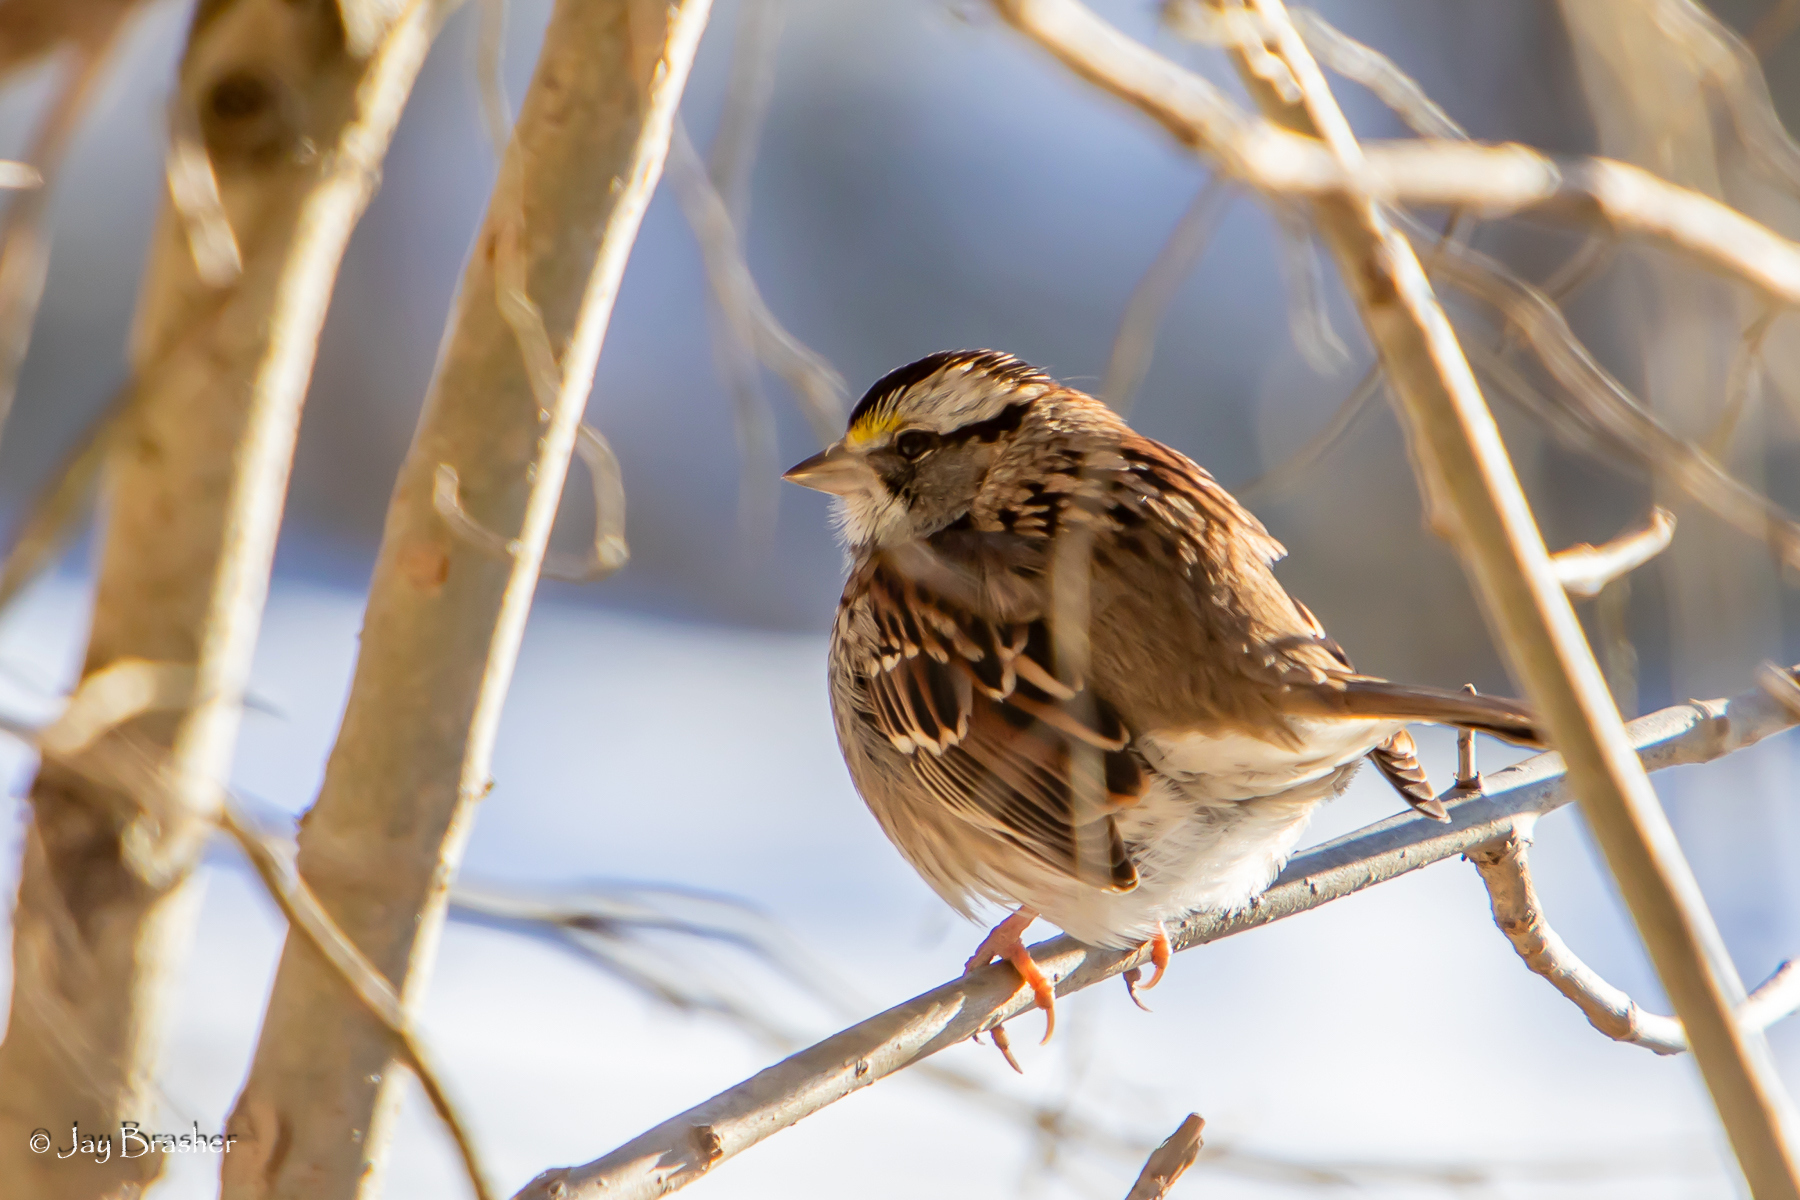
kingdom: Animalia
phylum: Chordata
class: Aves
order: Passeriformes
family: Passerellidae
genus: Zonotrichia
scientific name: Zonotrichia albicollis
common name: White-throated sparrow
